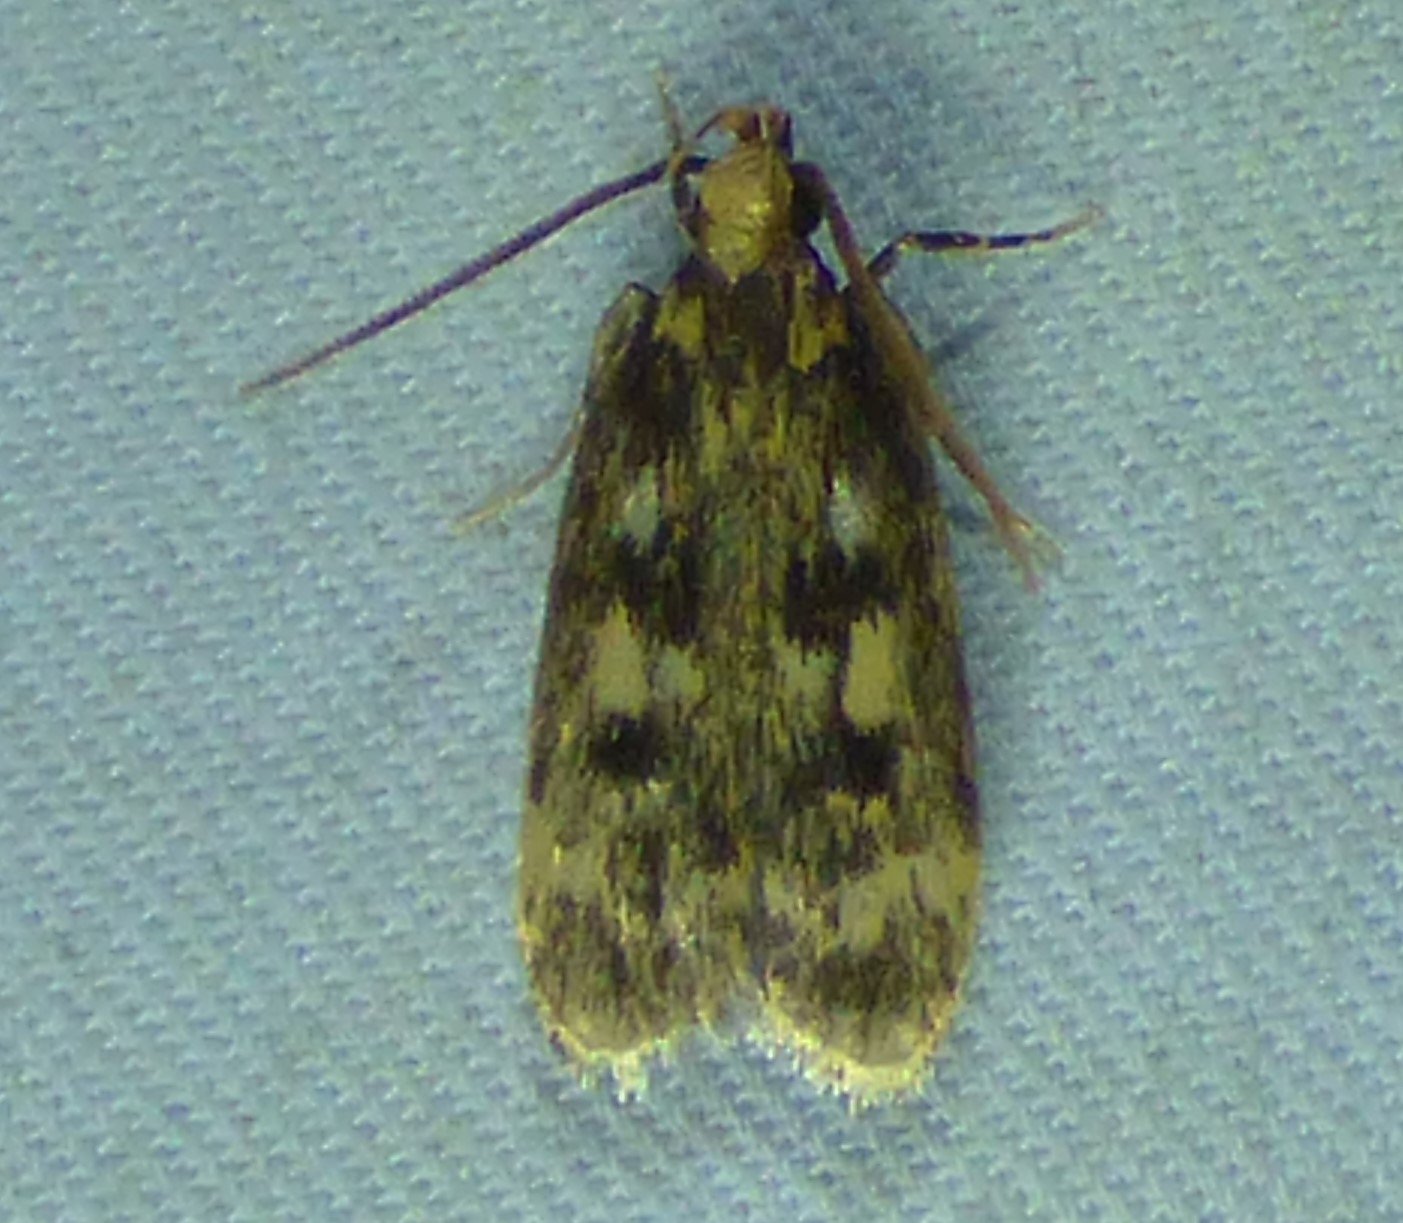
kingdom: Animalia
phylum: Arthropoda
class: Insecta
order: Lepidoptera
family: Lecithoceridae
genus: Martyringa
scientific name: Martyringa latipennis
